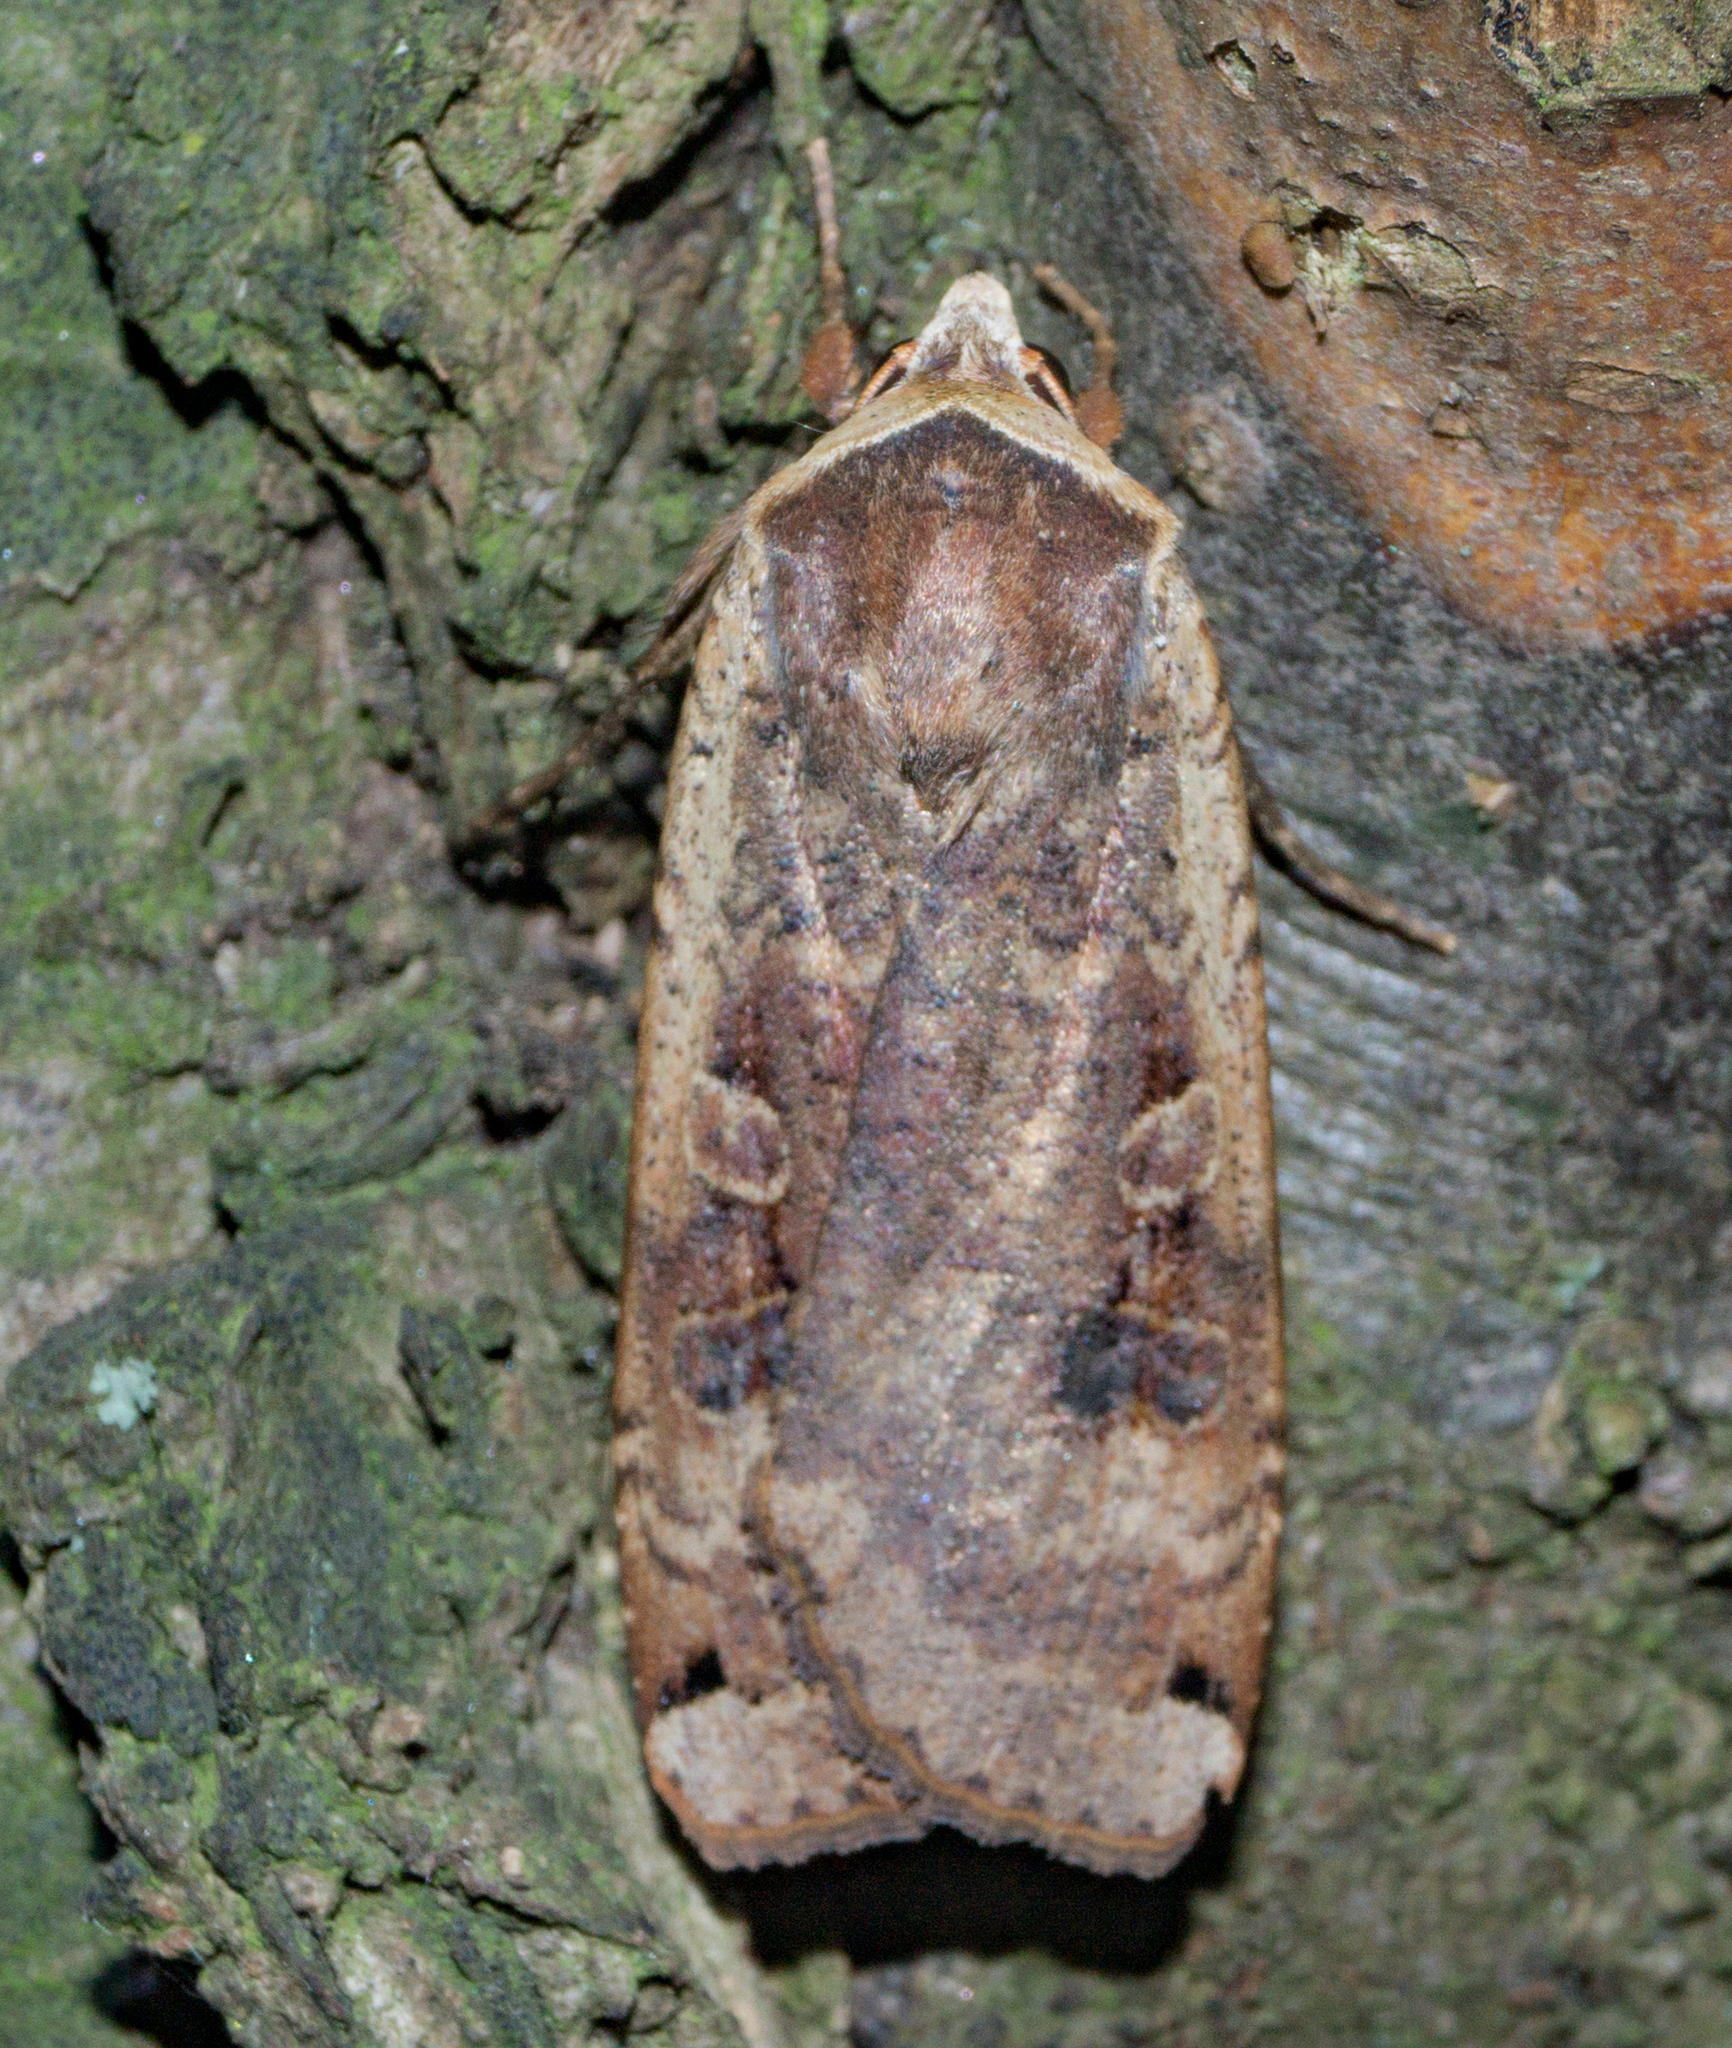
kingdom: Animalia
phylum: Arthropoda
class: Insecta
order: Lepidoptera
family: Noctuidae
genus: Noctua
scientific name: Noctua pronuba
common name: Large yellow underwing
